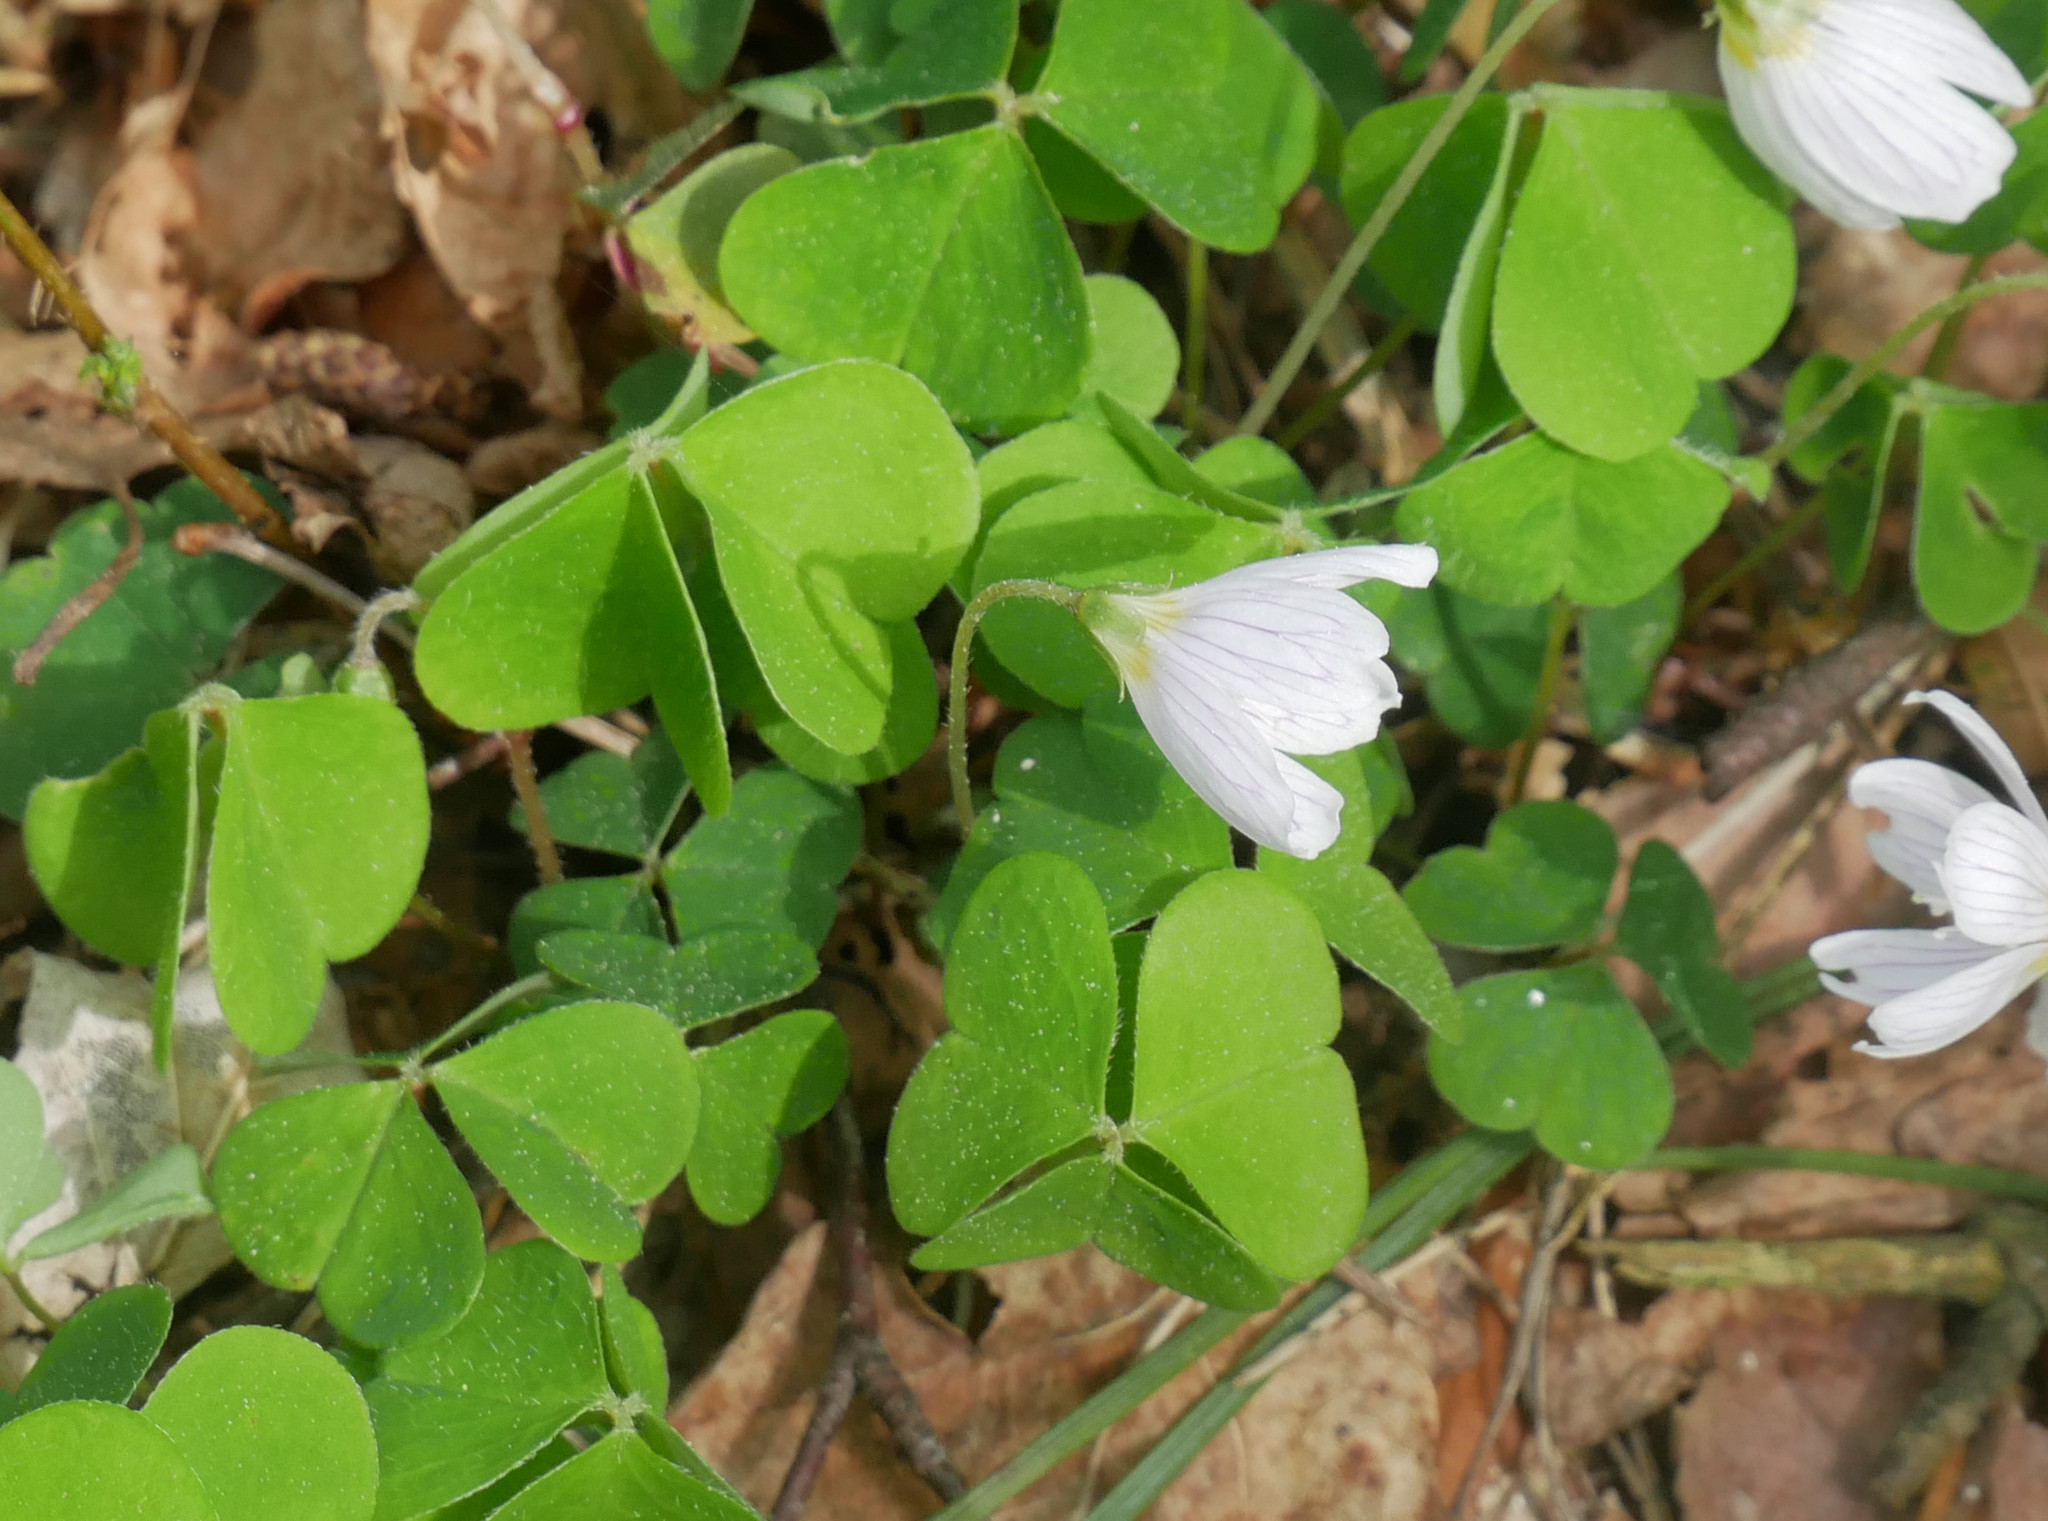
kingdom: Plantae
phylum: Tracheophyta
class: Magnoliopsida
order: Oxalidales
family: Oxalidaceae
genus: Oxalis
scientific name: Oxalis acetosella
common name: Wood-sorrel
